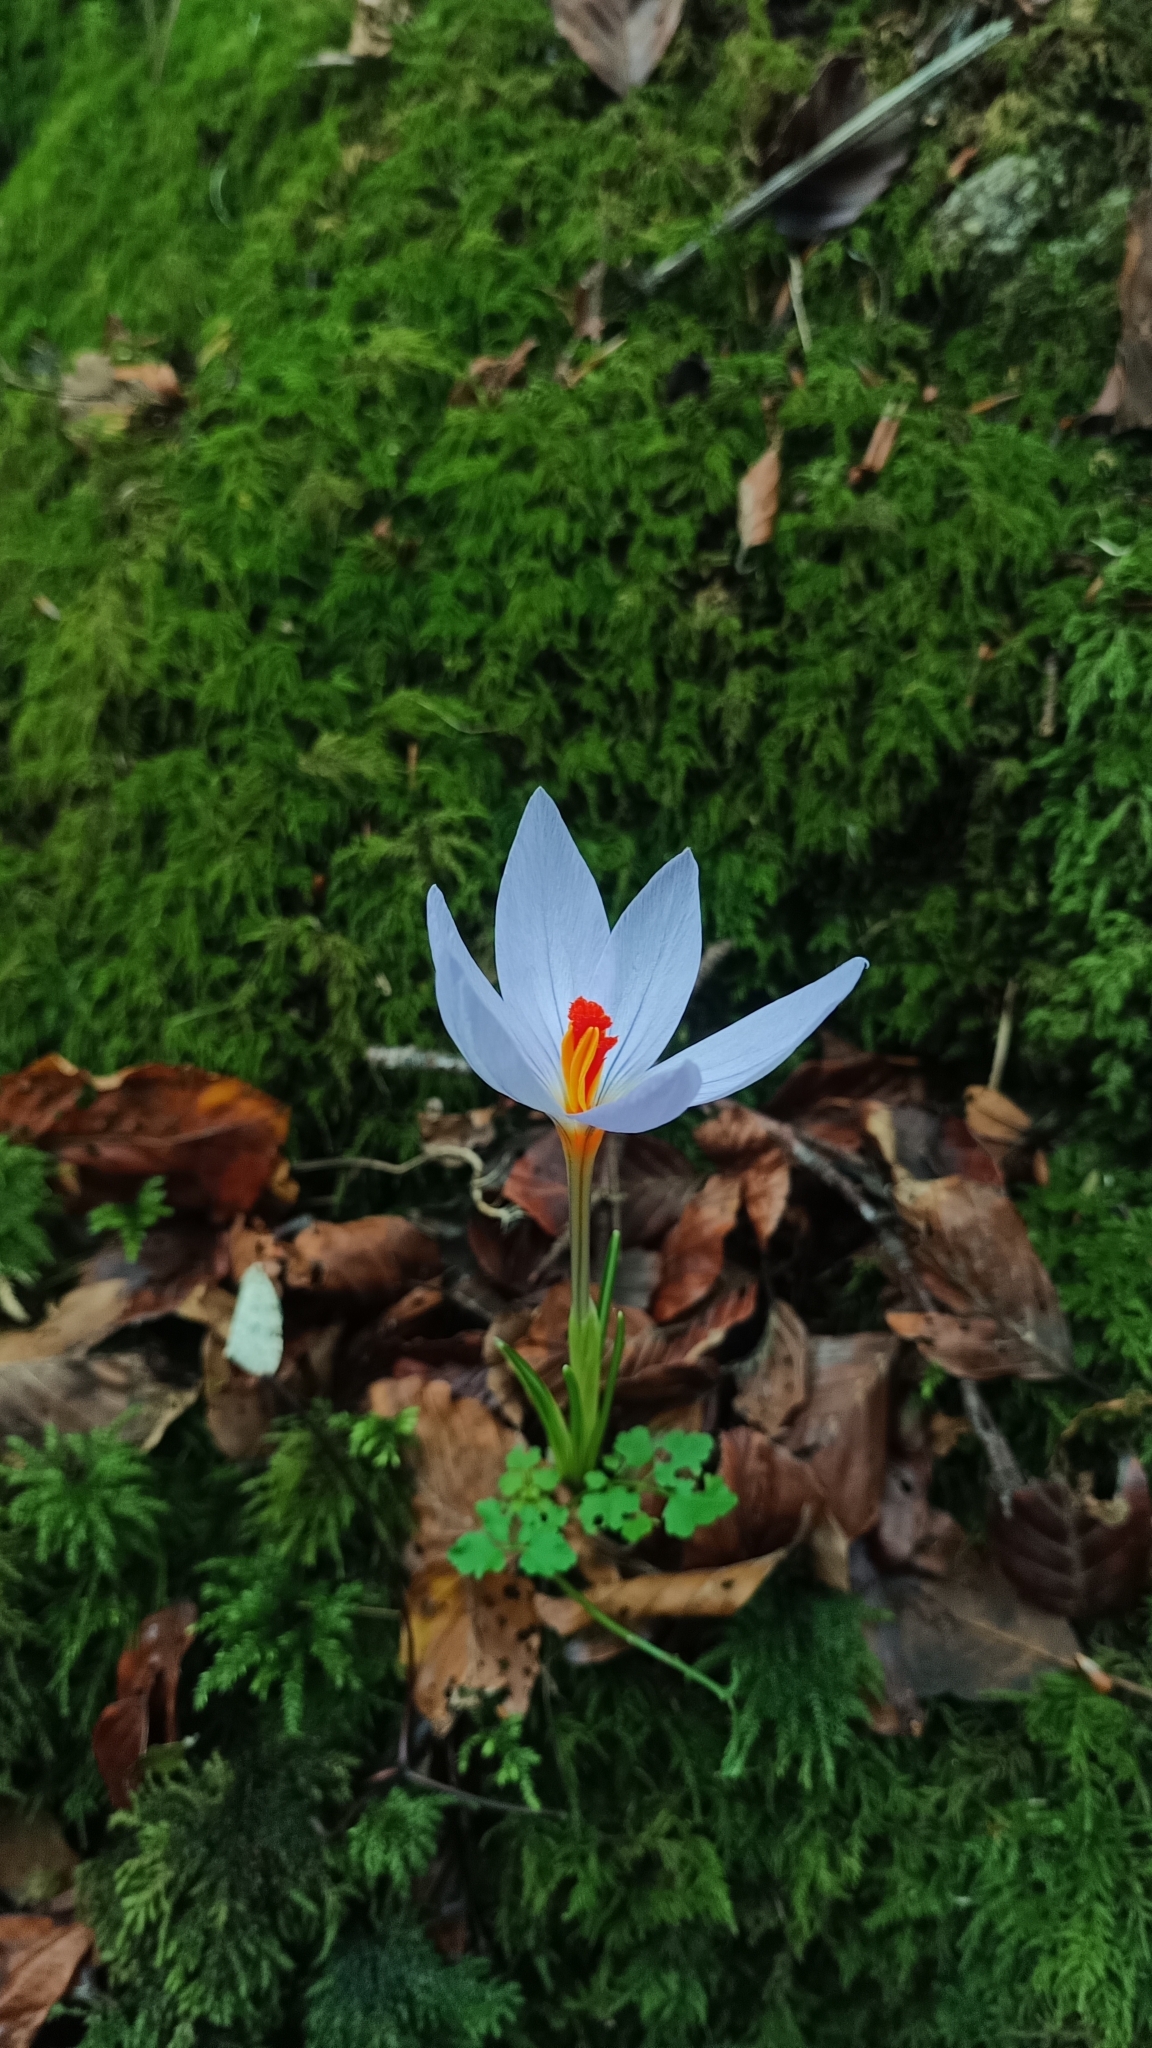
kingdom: Plantae
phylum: Tracheophyta
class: Liliopsida
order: Asparagales
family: Iridaceae
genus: Crocus
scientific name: Crocus longiflorus
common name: Italian crocus
